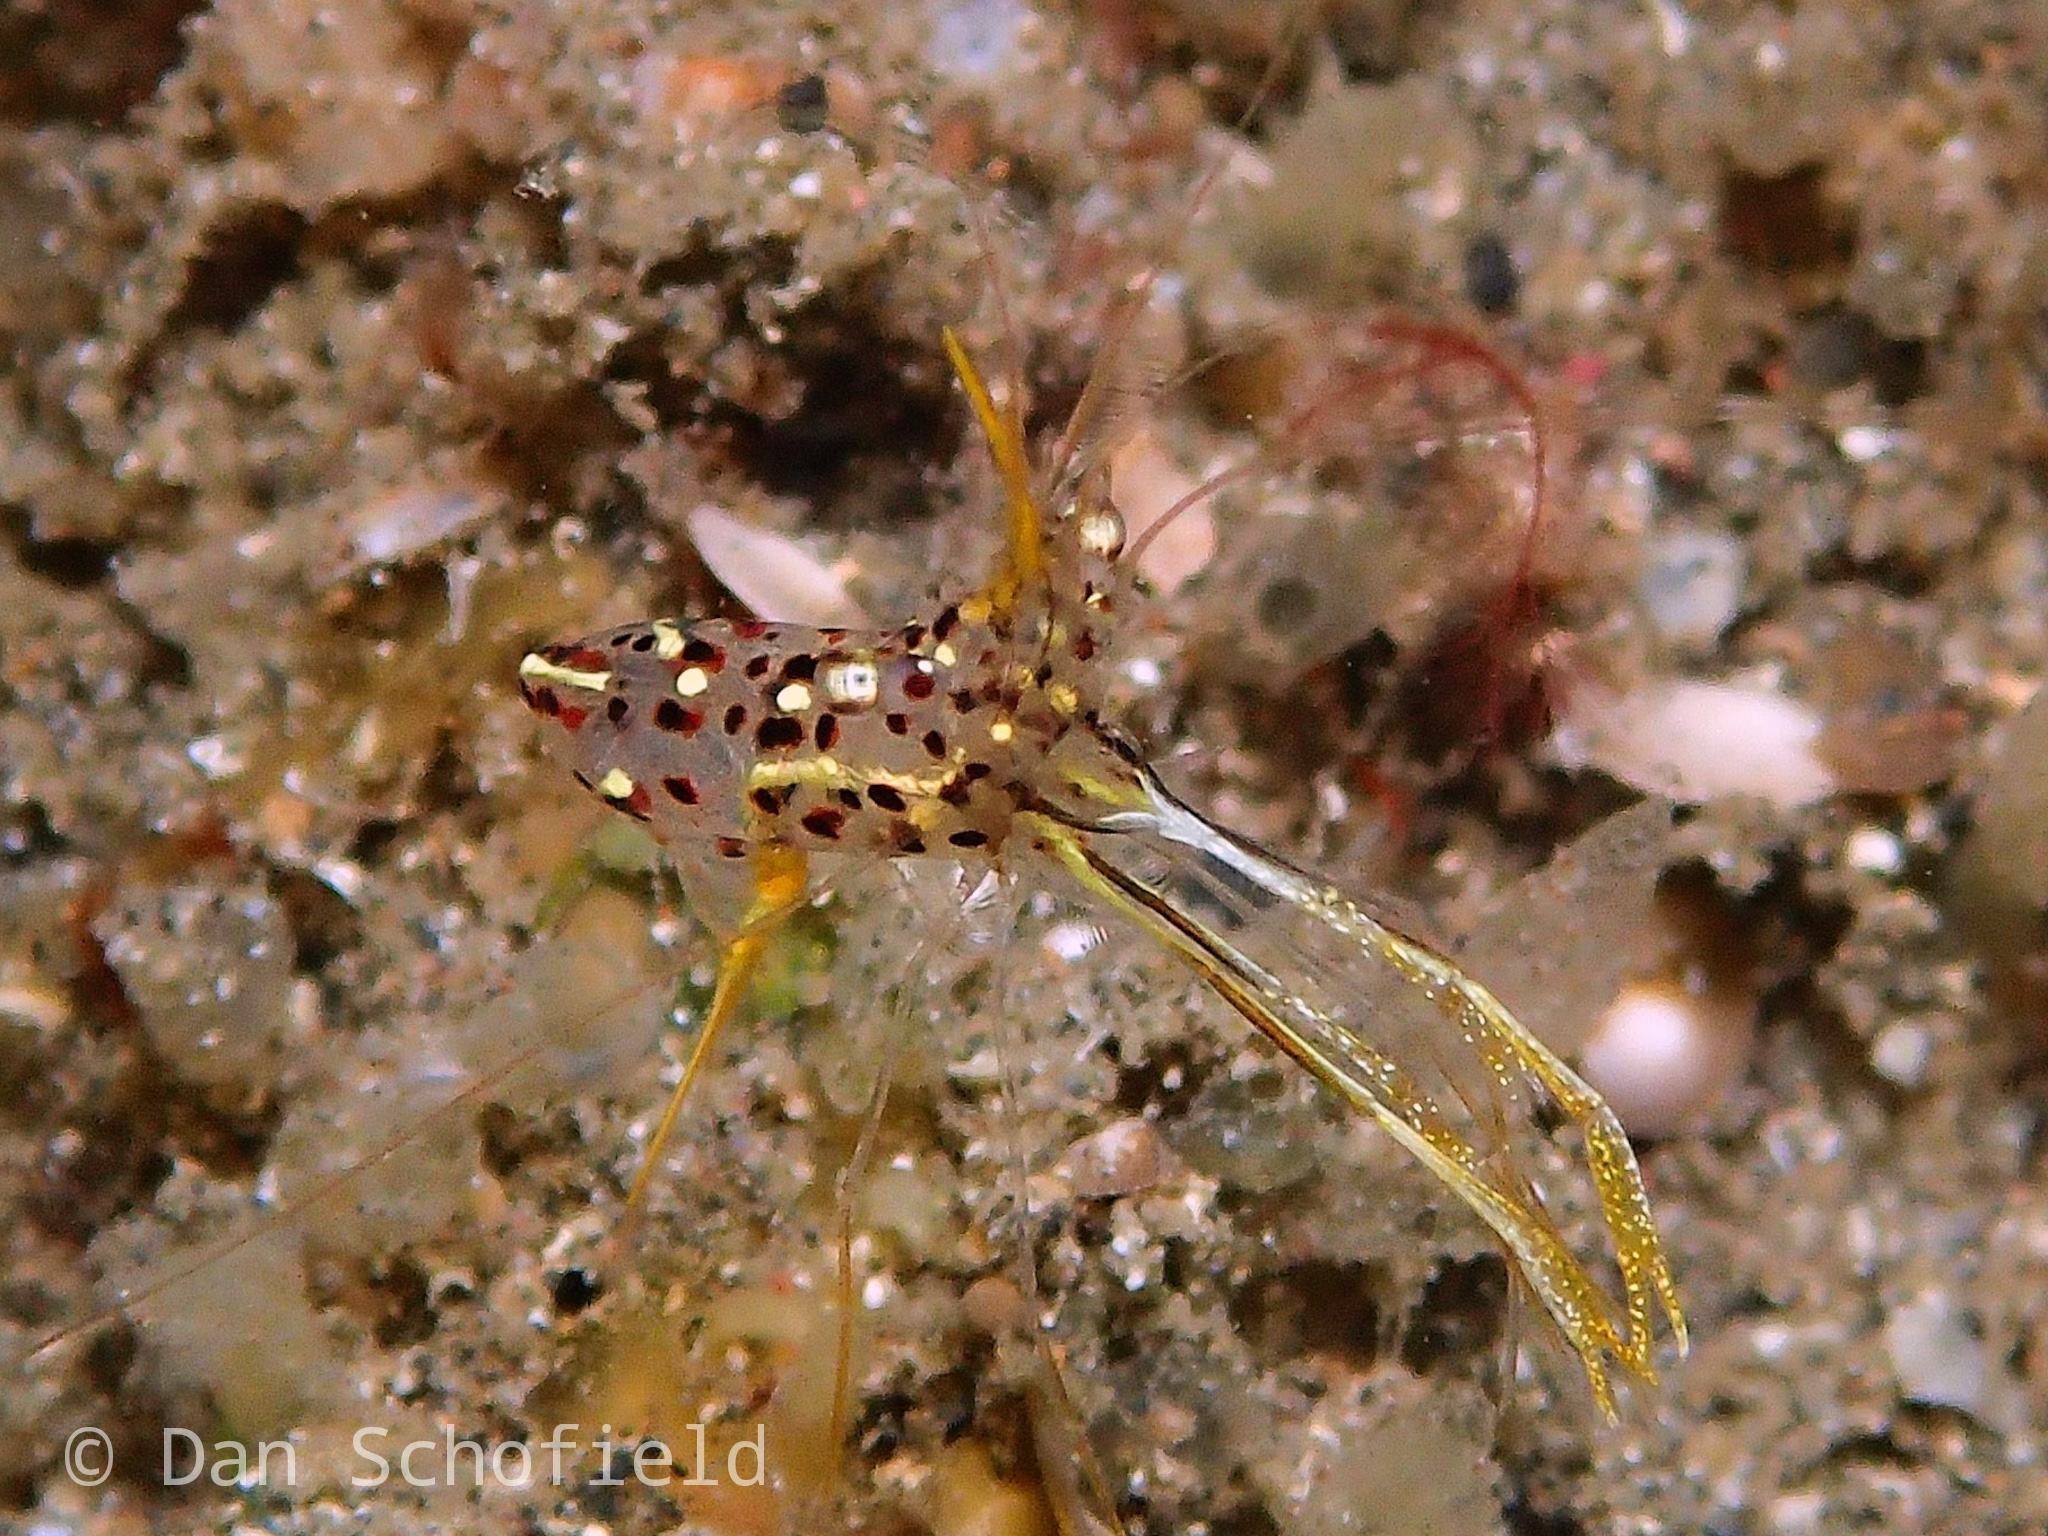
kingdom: Animalia
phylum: Arthropoda
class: Malacostraca
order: Decapoda
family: Palaemonidae
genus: Urocaridella
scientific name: Urocaridella degravei
